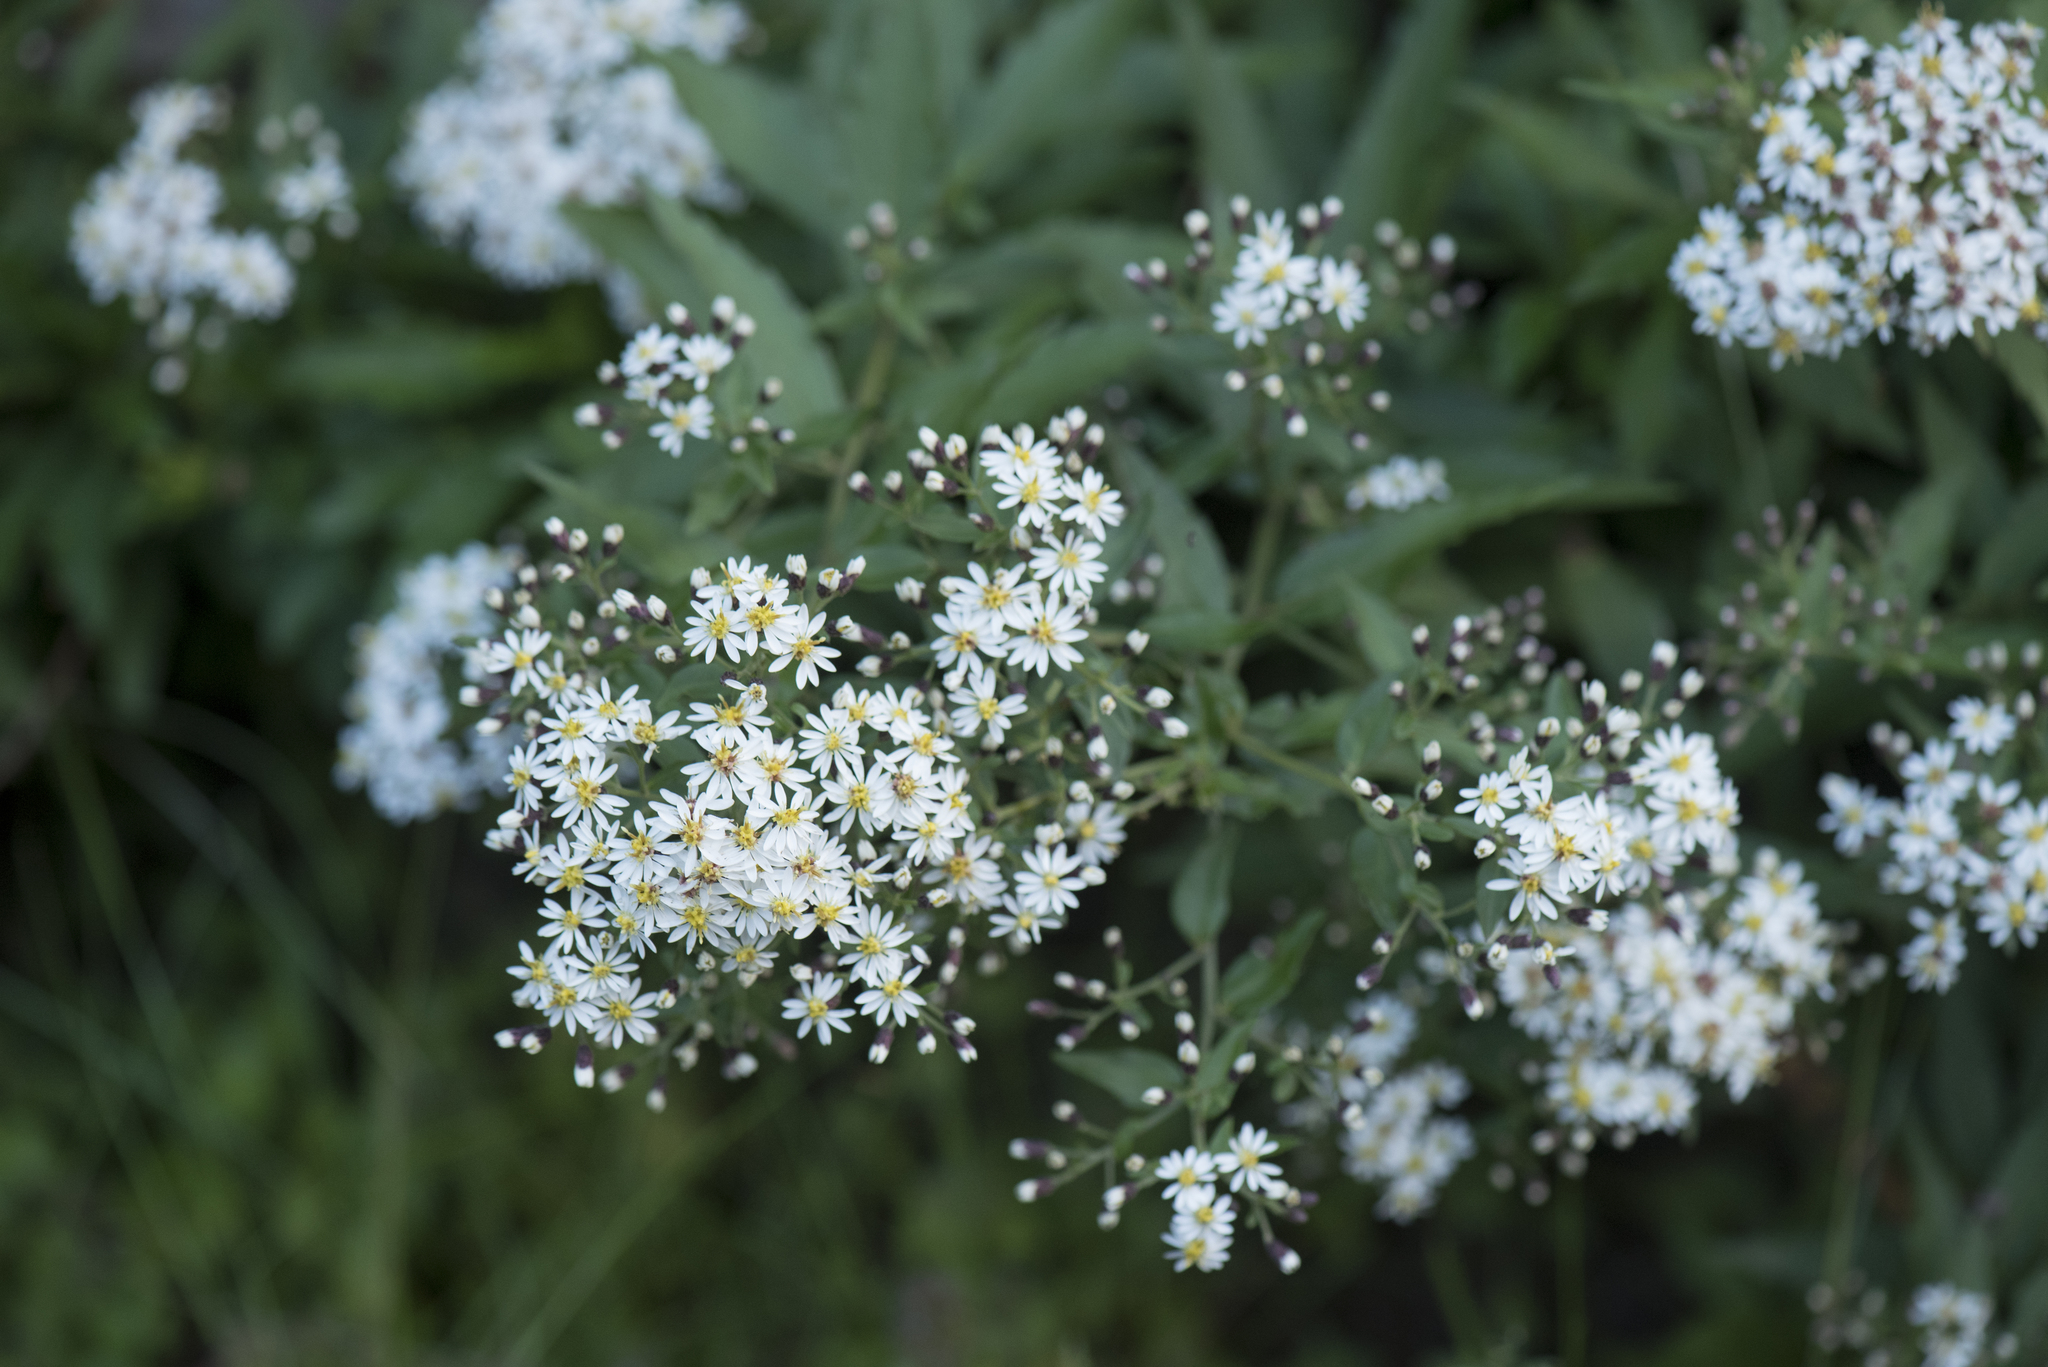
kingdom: Plantae
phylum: Tracheophyta
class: Magnoliopsida
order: Asterales
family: Asteraceae
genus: Aster
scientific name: Aster taiwanensis
